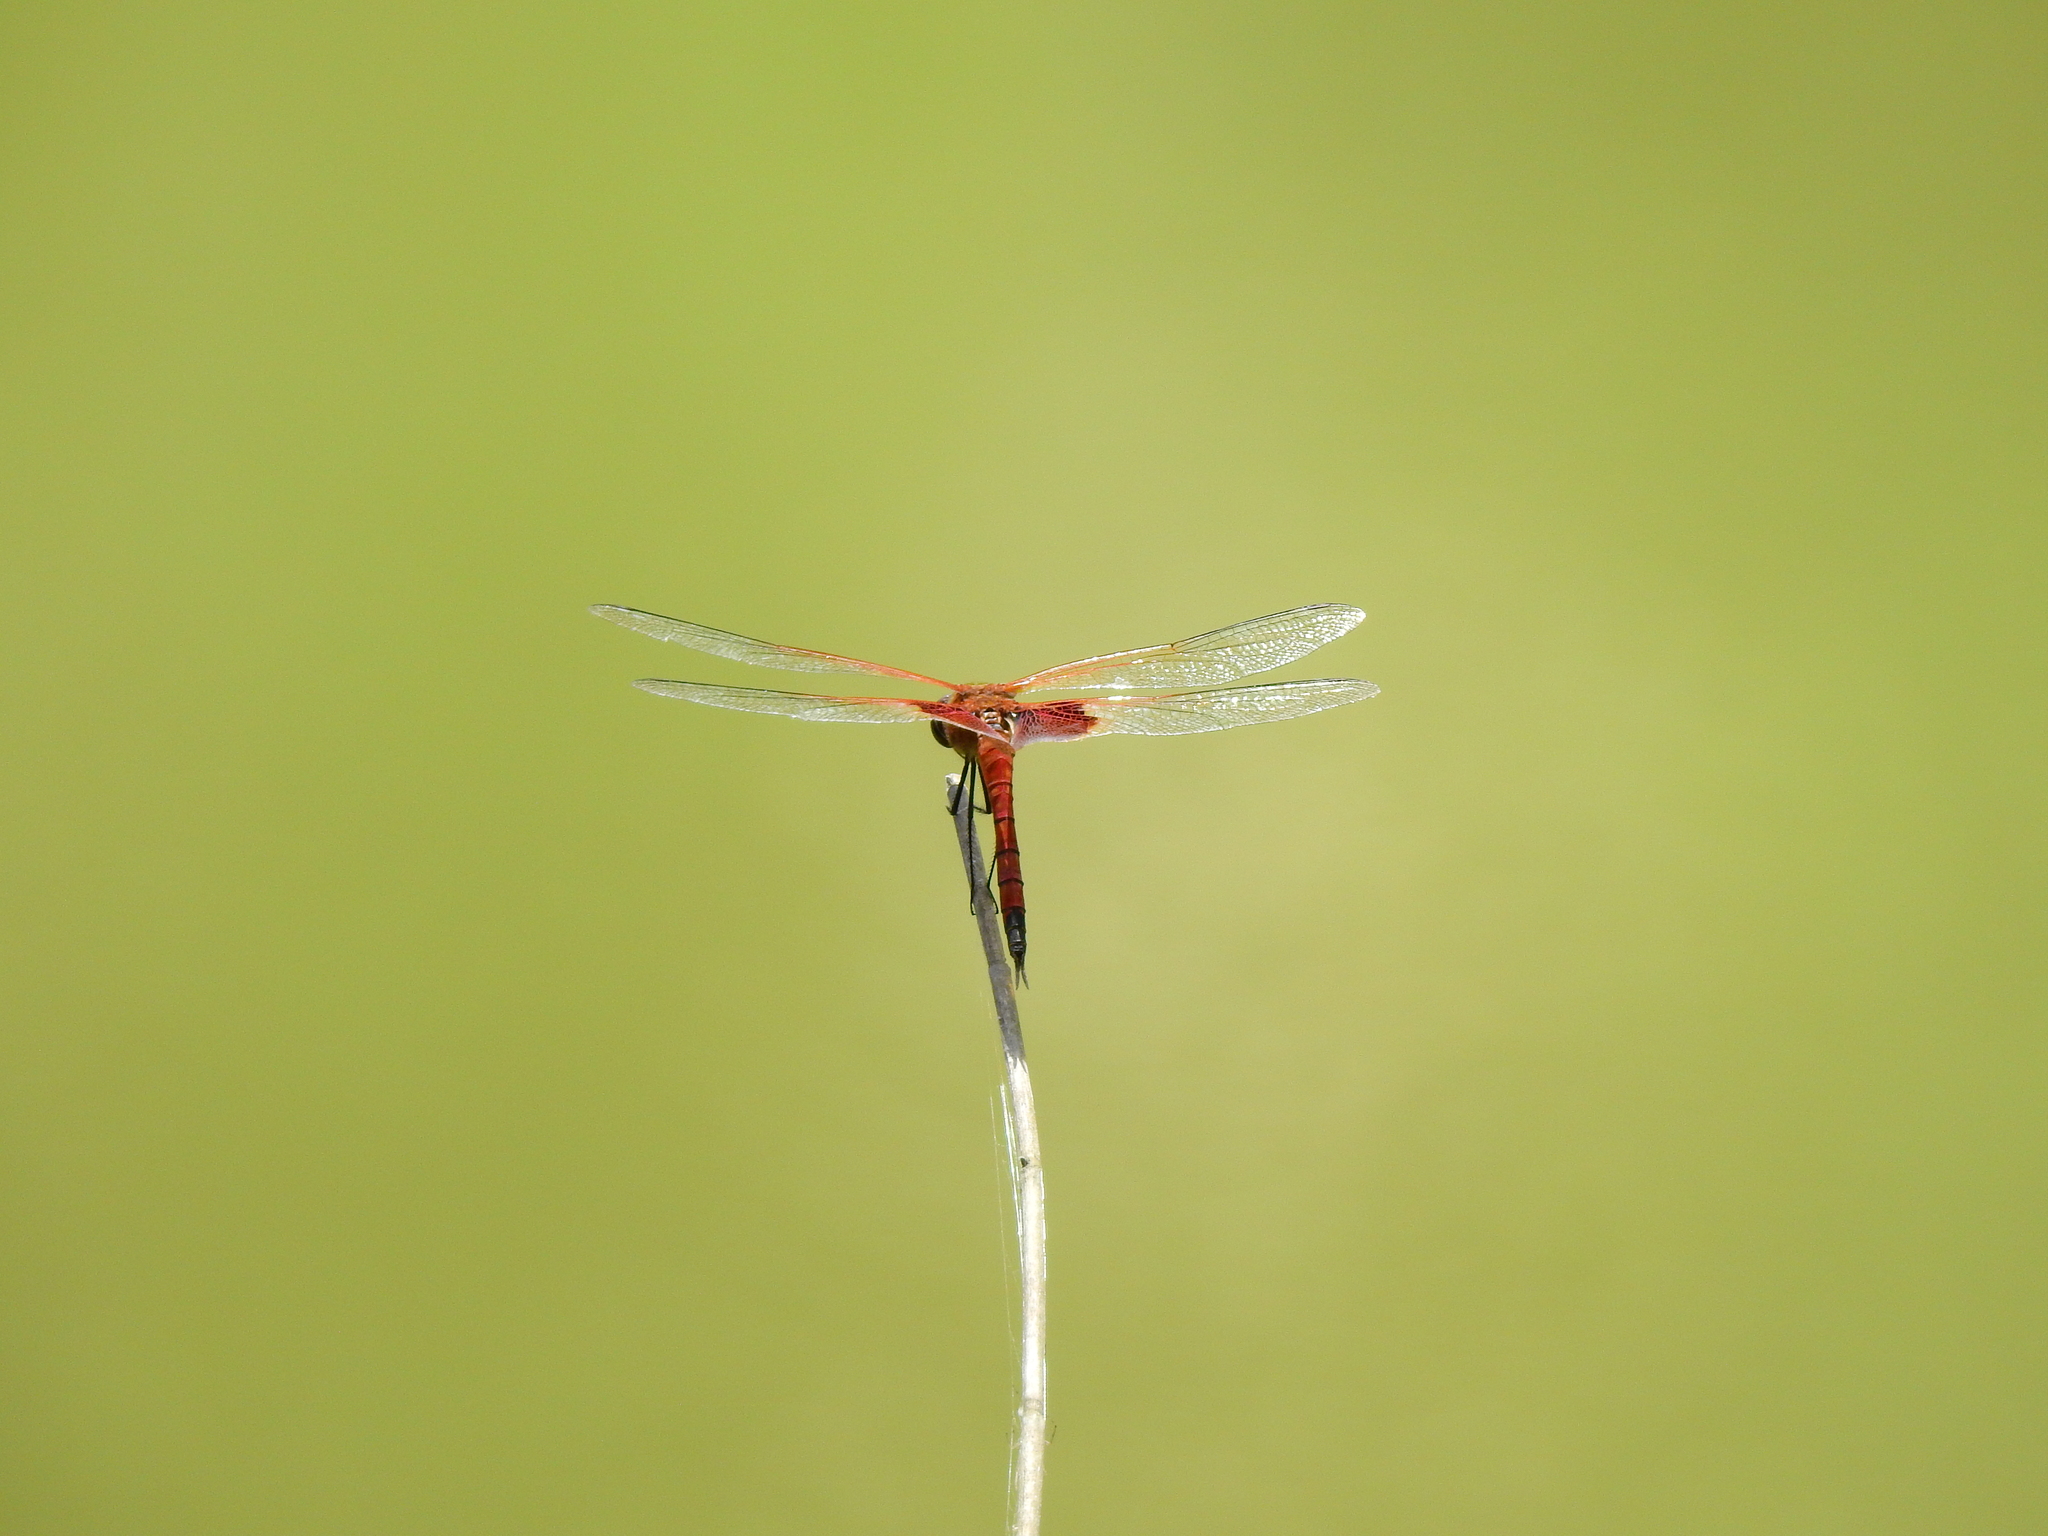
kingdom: Animalia
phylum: Arthropoda
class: Insecta
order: Odonata
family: Libellulidae
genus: Tramea
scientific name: Tramea virginia
